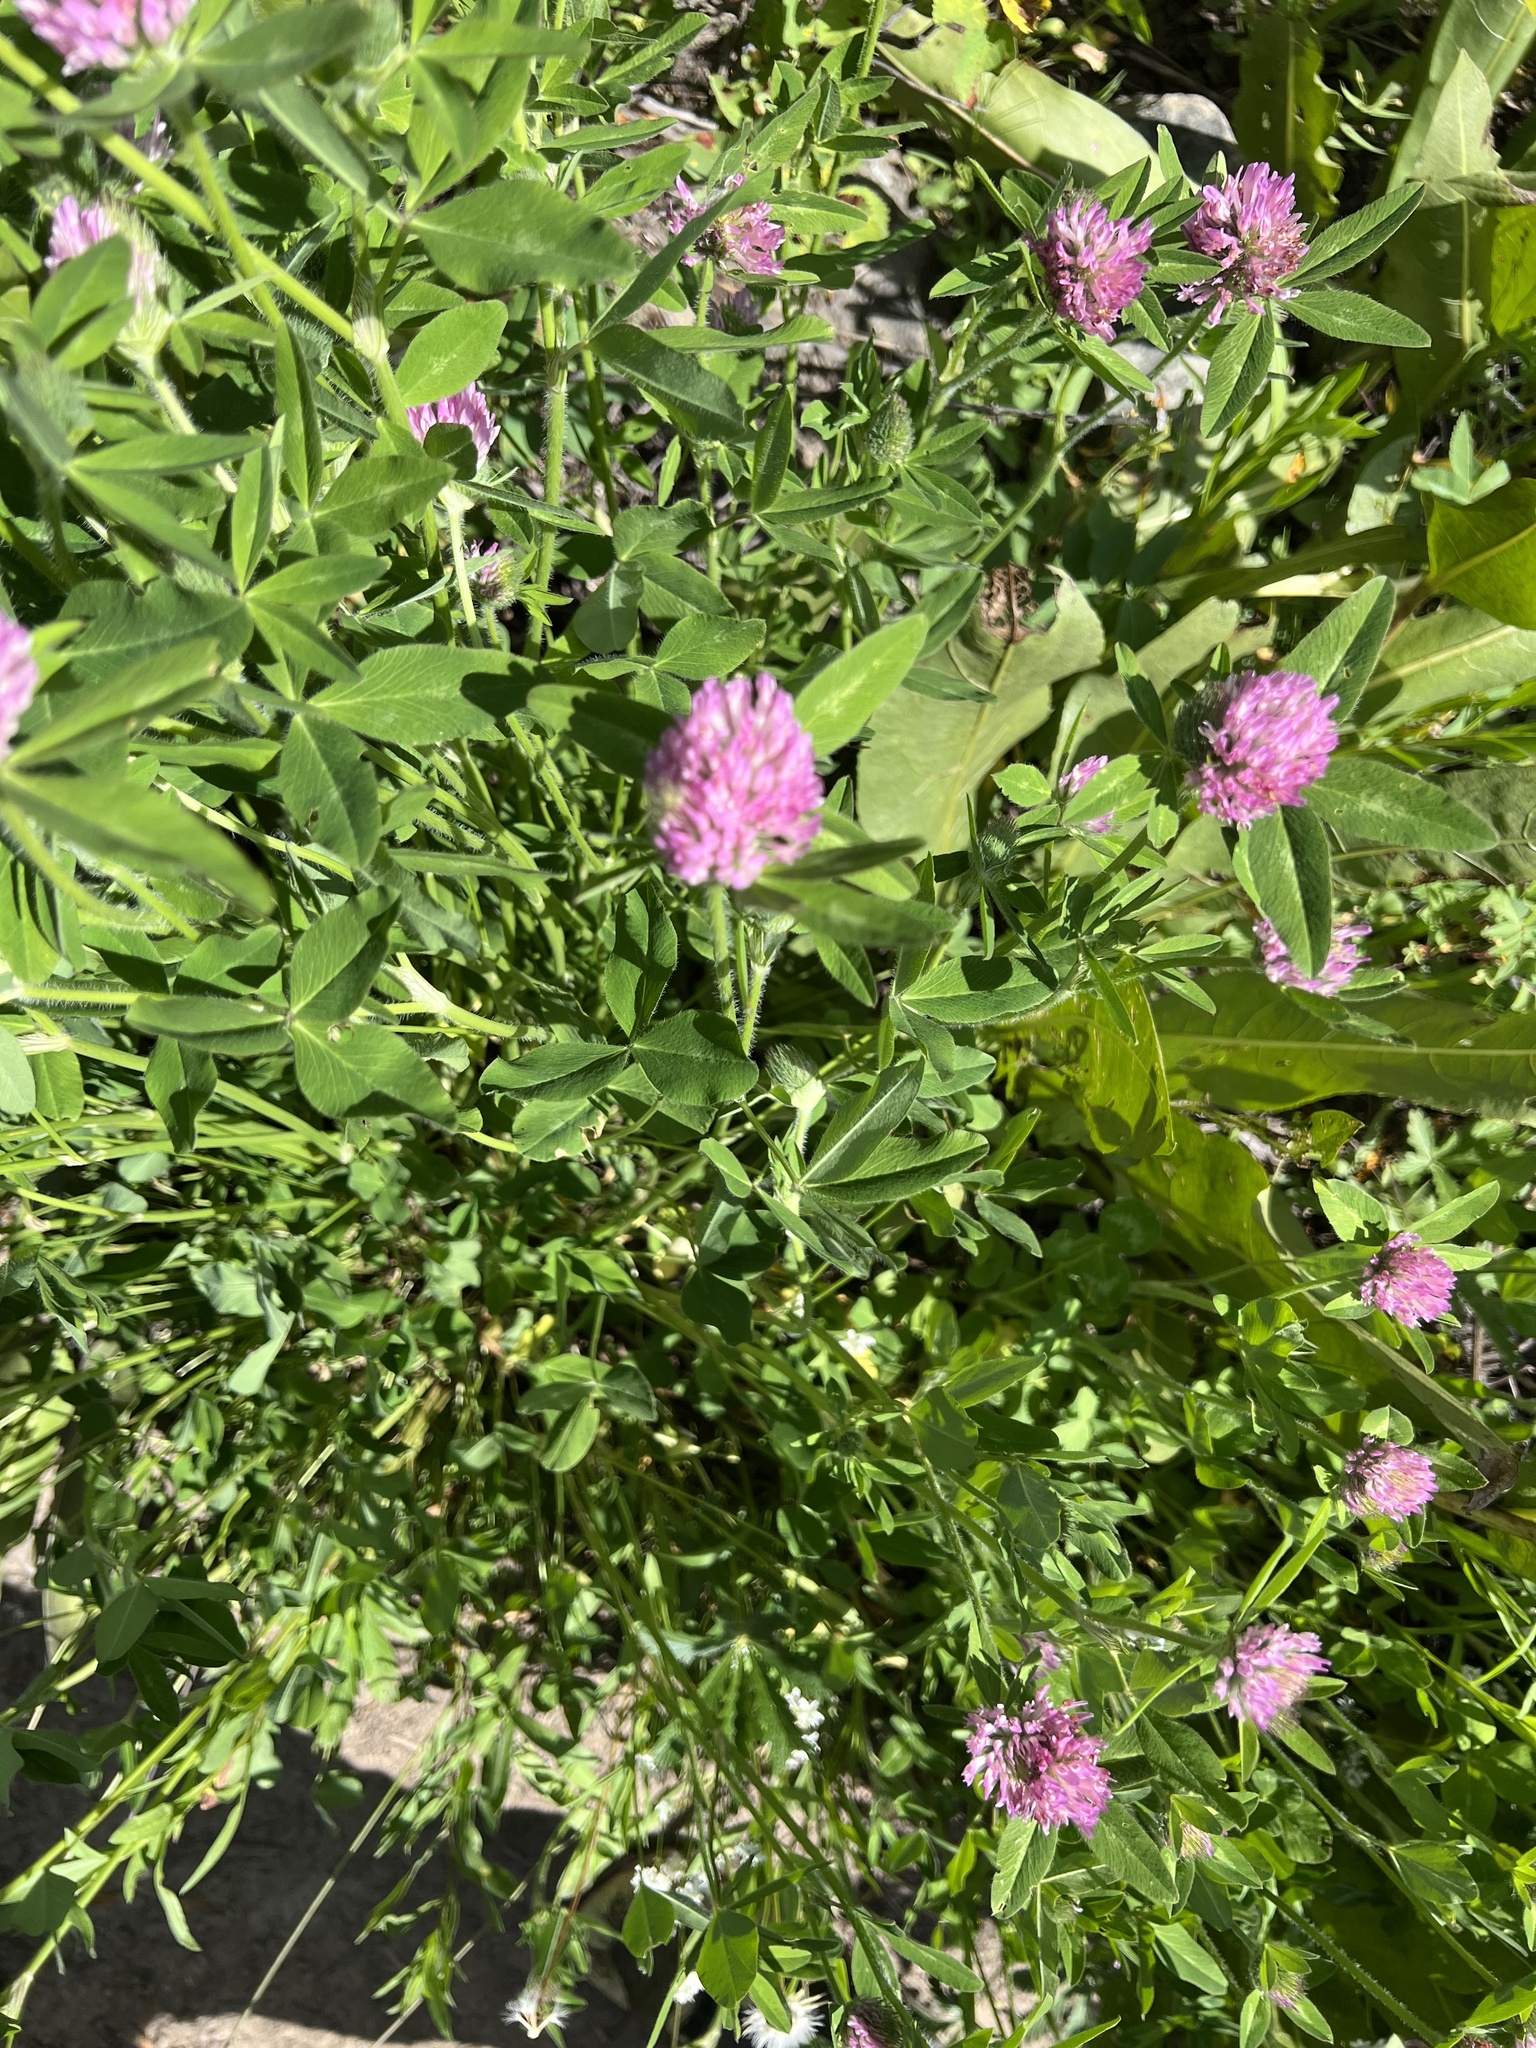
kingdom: Plantae
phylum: Tracheophyta
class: Magnoliopsida
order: Fabales
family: Fabaceae
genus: Trifolium
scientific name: Trifolium pratense
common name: Red clover
